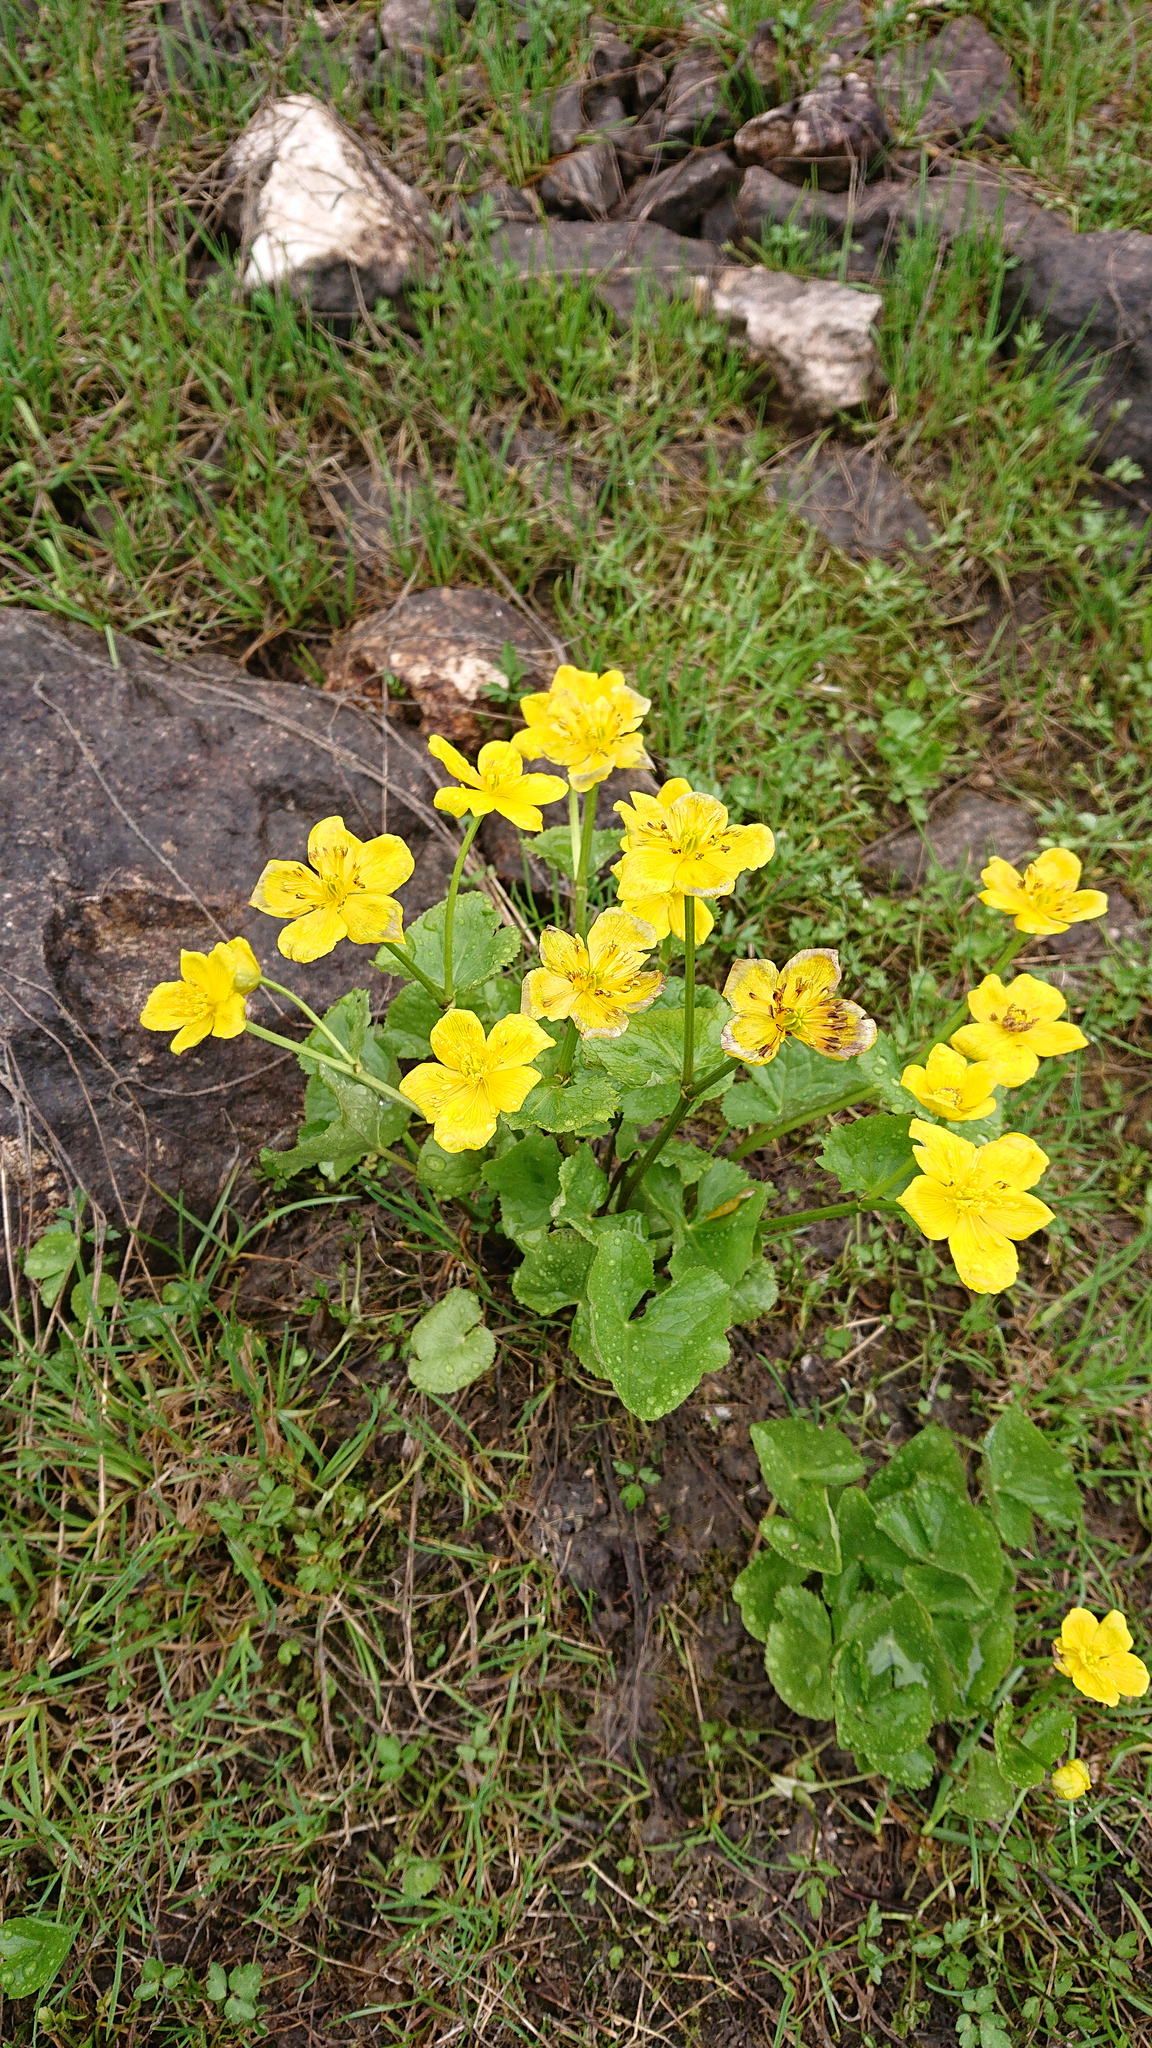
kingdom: Plantae
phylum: Tracheophyta
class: Magnoliopsida
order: Ranunculales
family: Ranunculaceae
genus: Caltha
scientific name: Caltha palustris
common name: Marsh marigold
